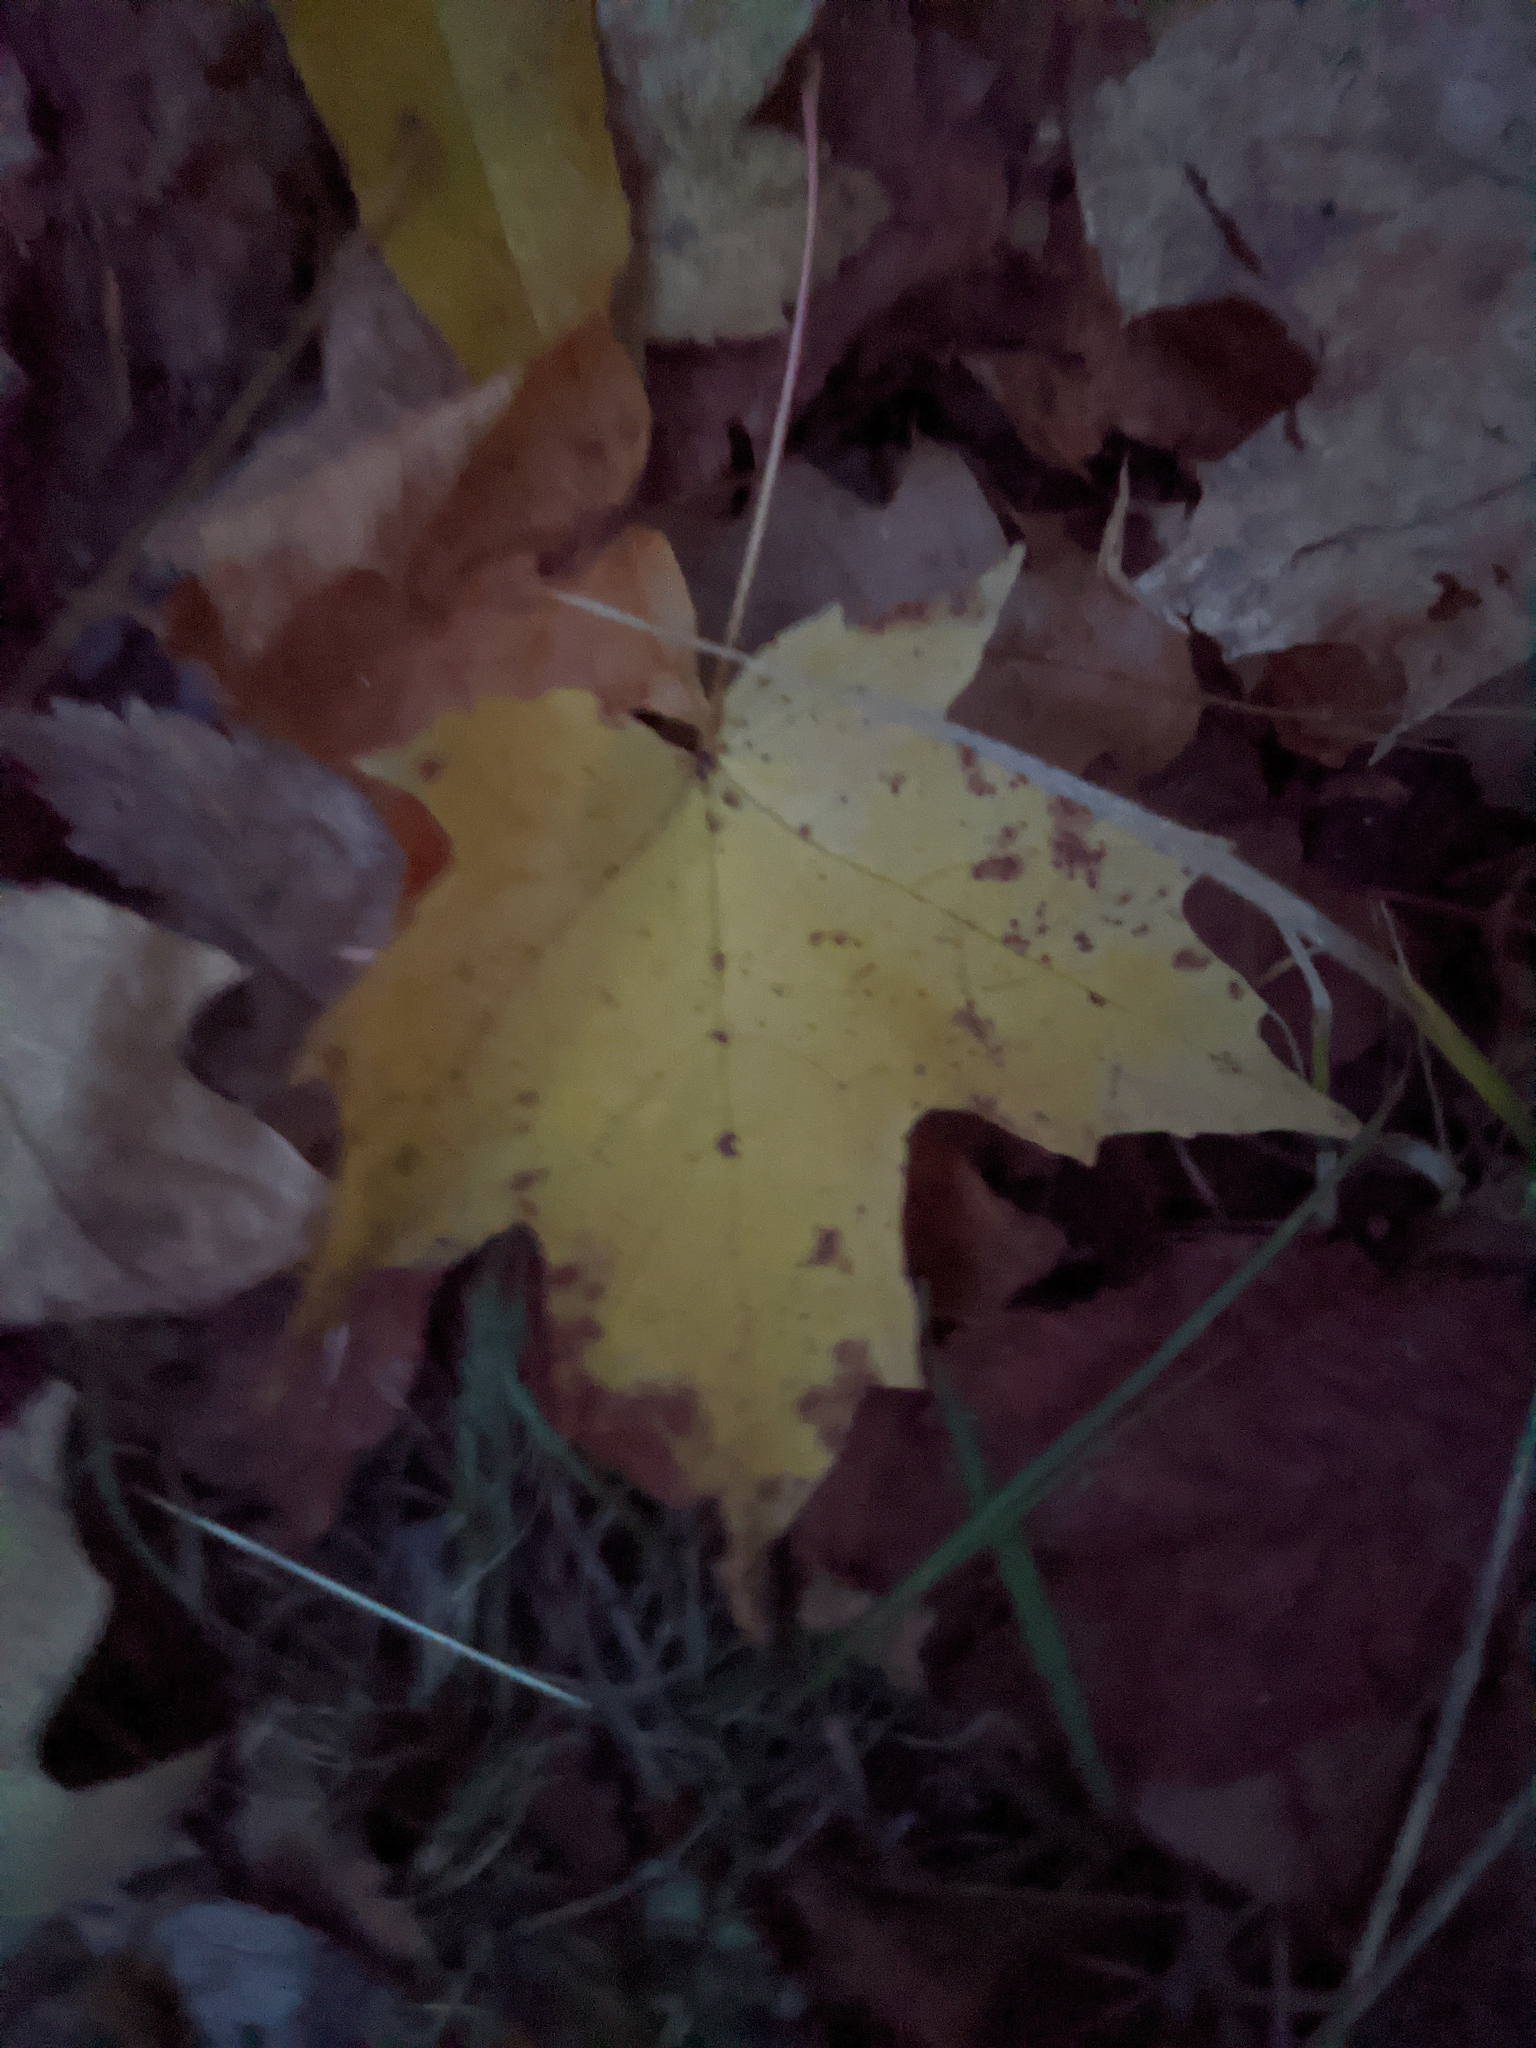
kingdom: Plantae
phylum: Tracheophyta
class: Magnoliopsida
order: Sapindales
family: Sapindaceae
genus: Acer
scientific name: Acer saccharum
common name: Sugar maple
